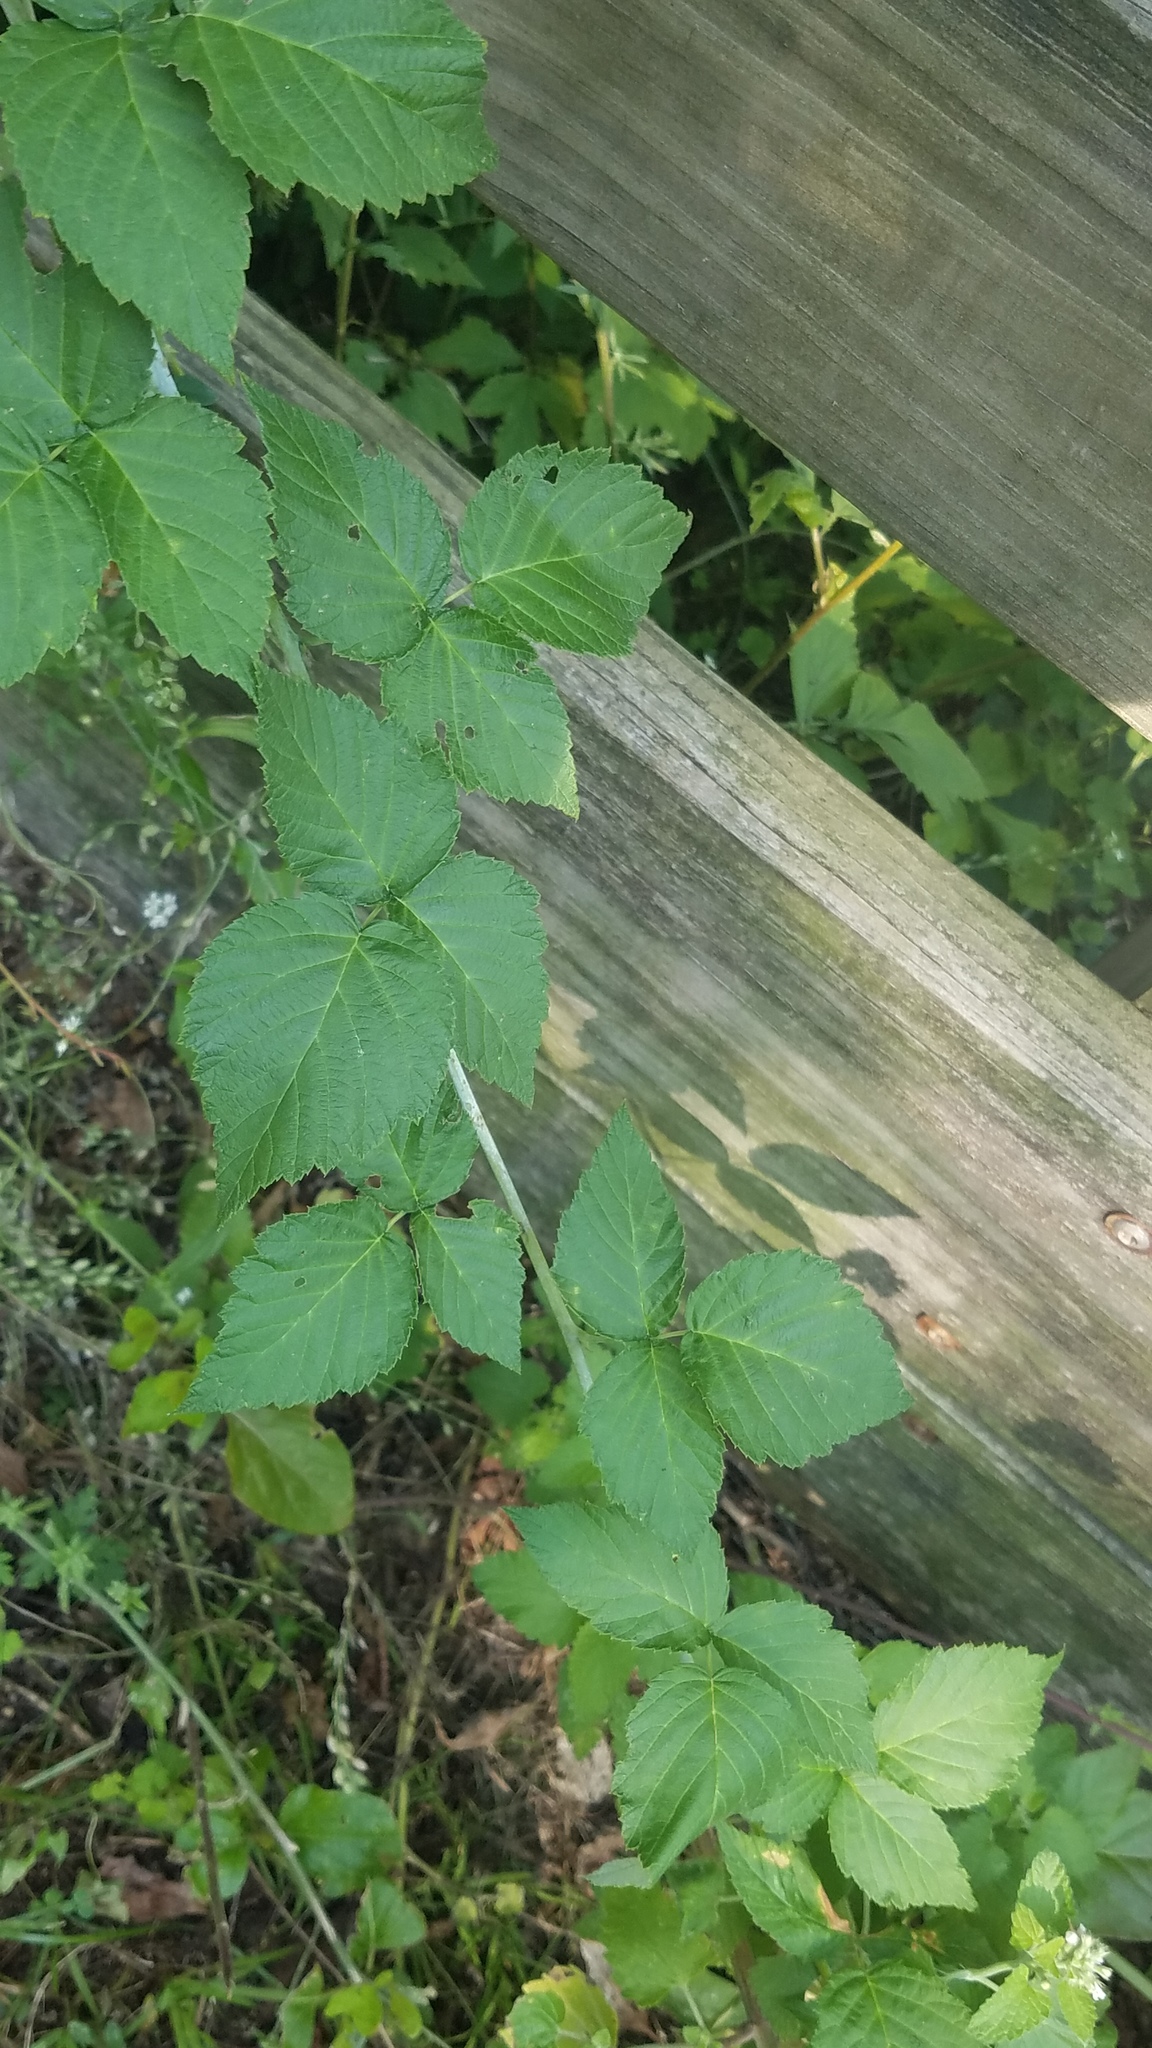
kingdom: Plantae
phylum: Tracheophyta
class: Magnoliopsida
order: Rosales
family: Rosaceae
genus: Rubus
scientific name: Rubus occidentalis
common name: Black raspberry
